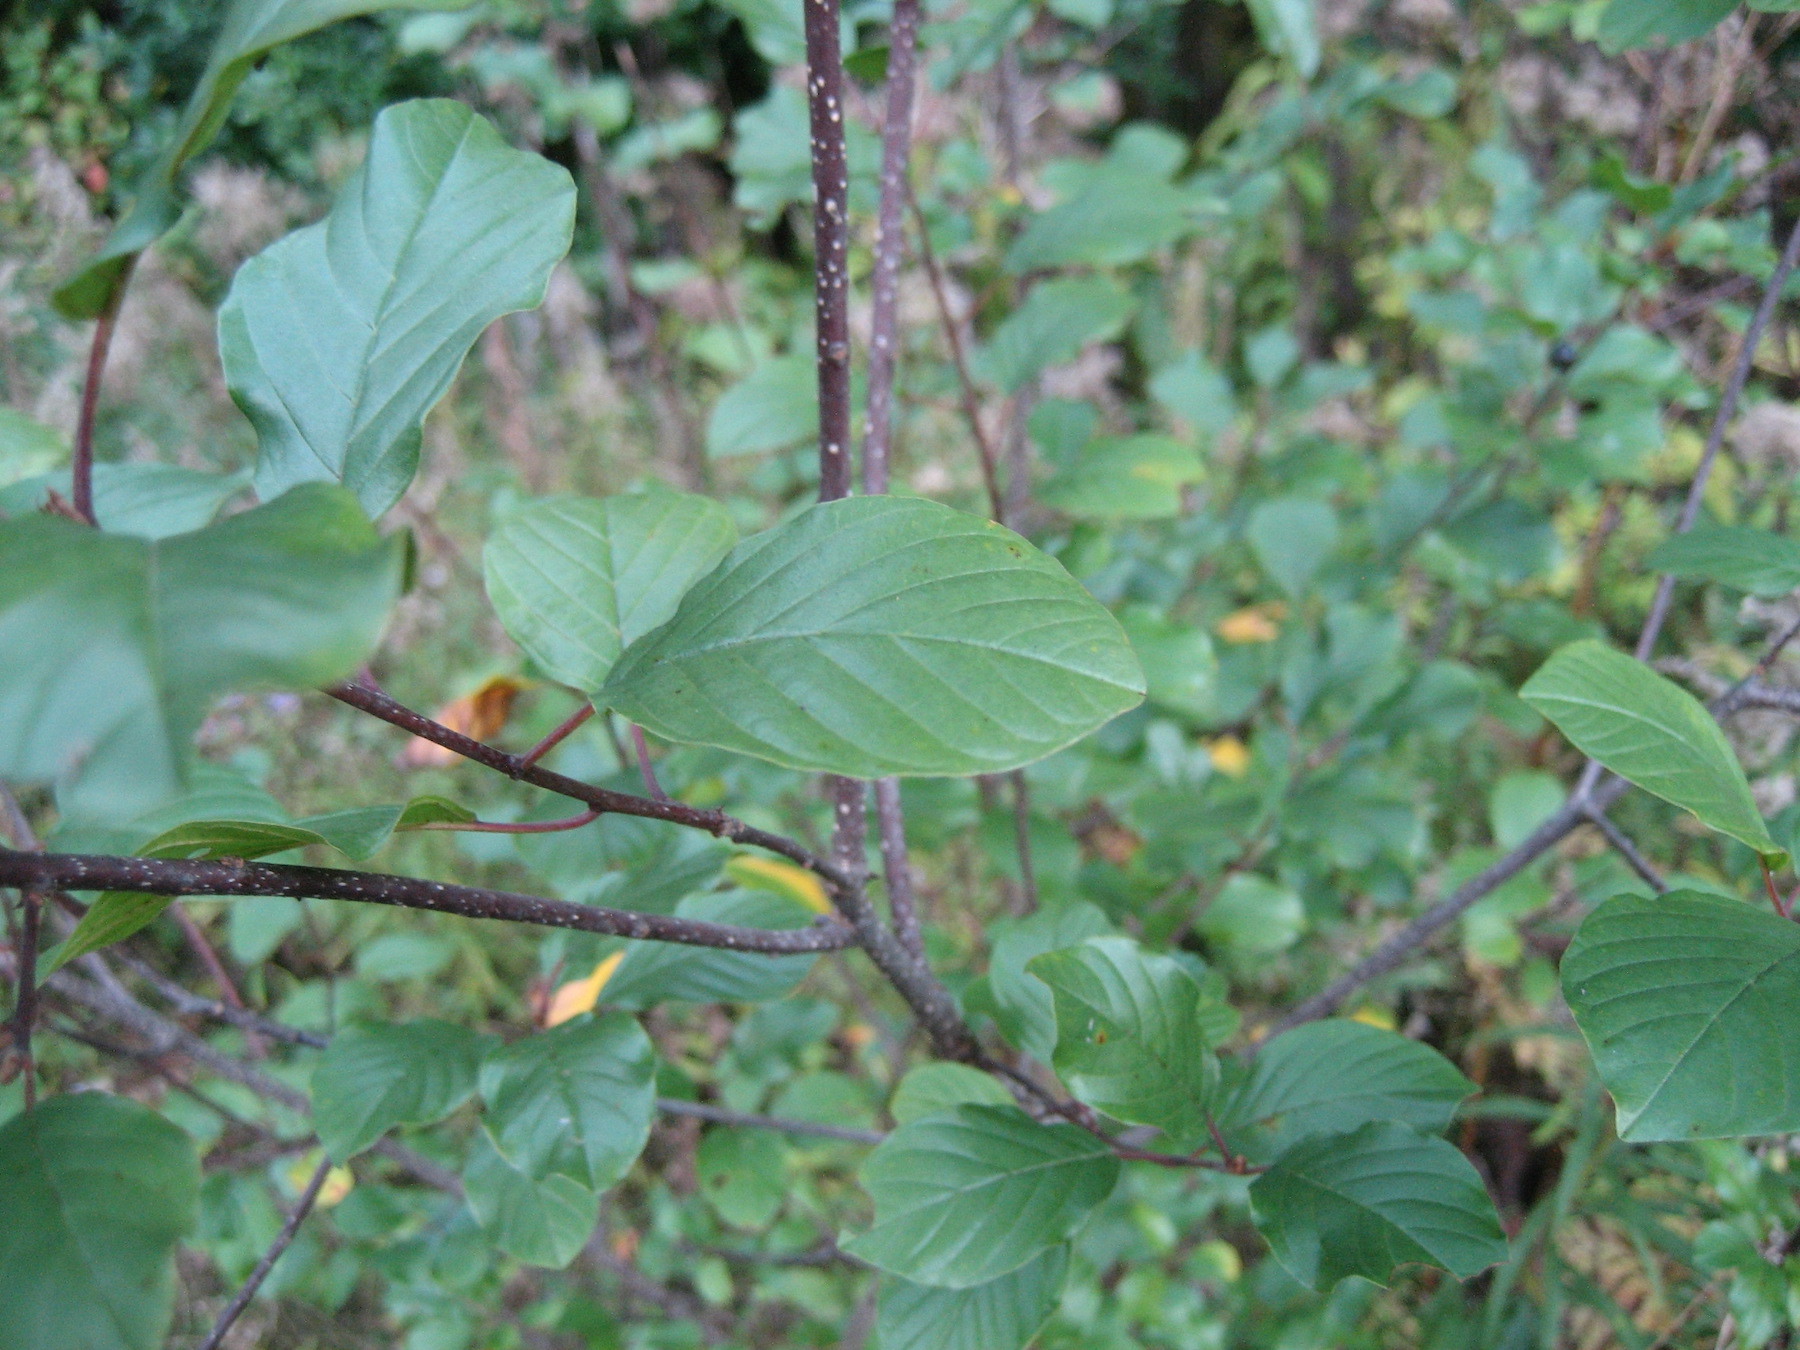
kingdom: Plantae
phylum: Tracheophyta
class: Magnoliopsida
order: Rosales
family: Rhamnaceae
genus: Frangula
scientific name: Frangula alnus
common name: Alder buckthorn
